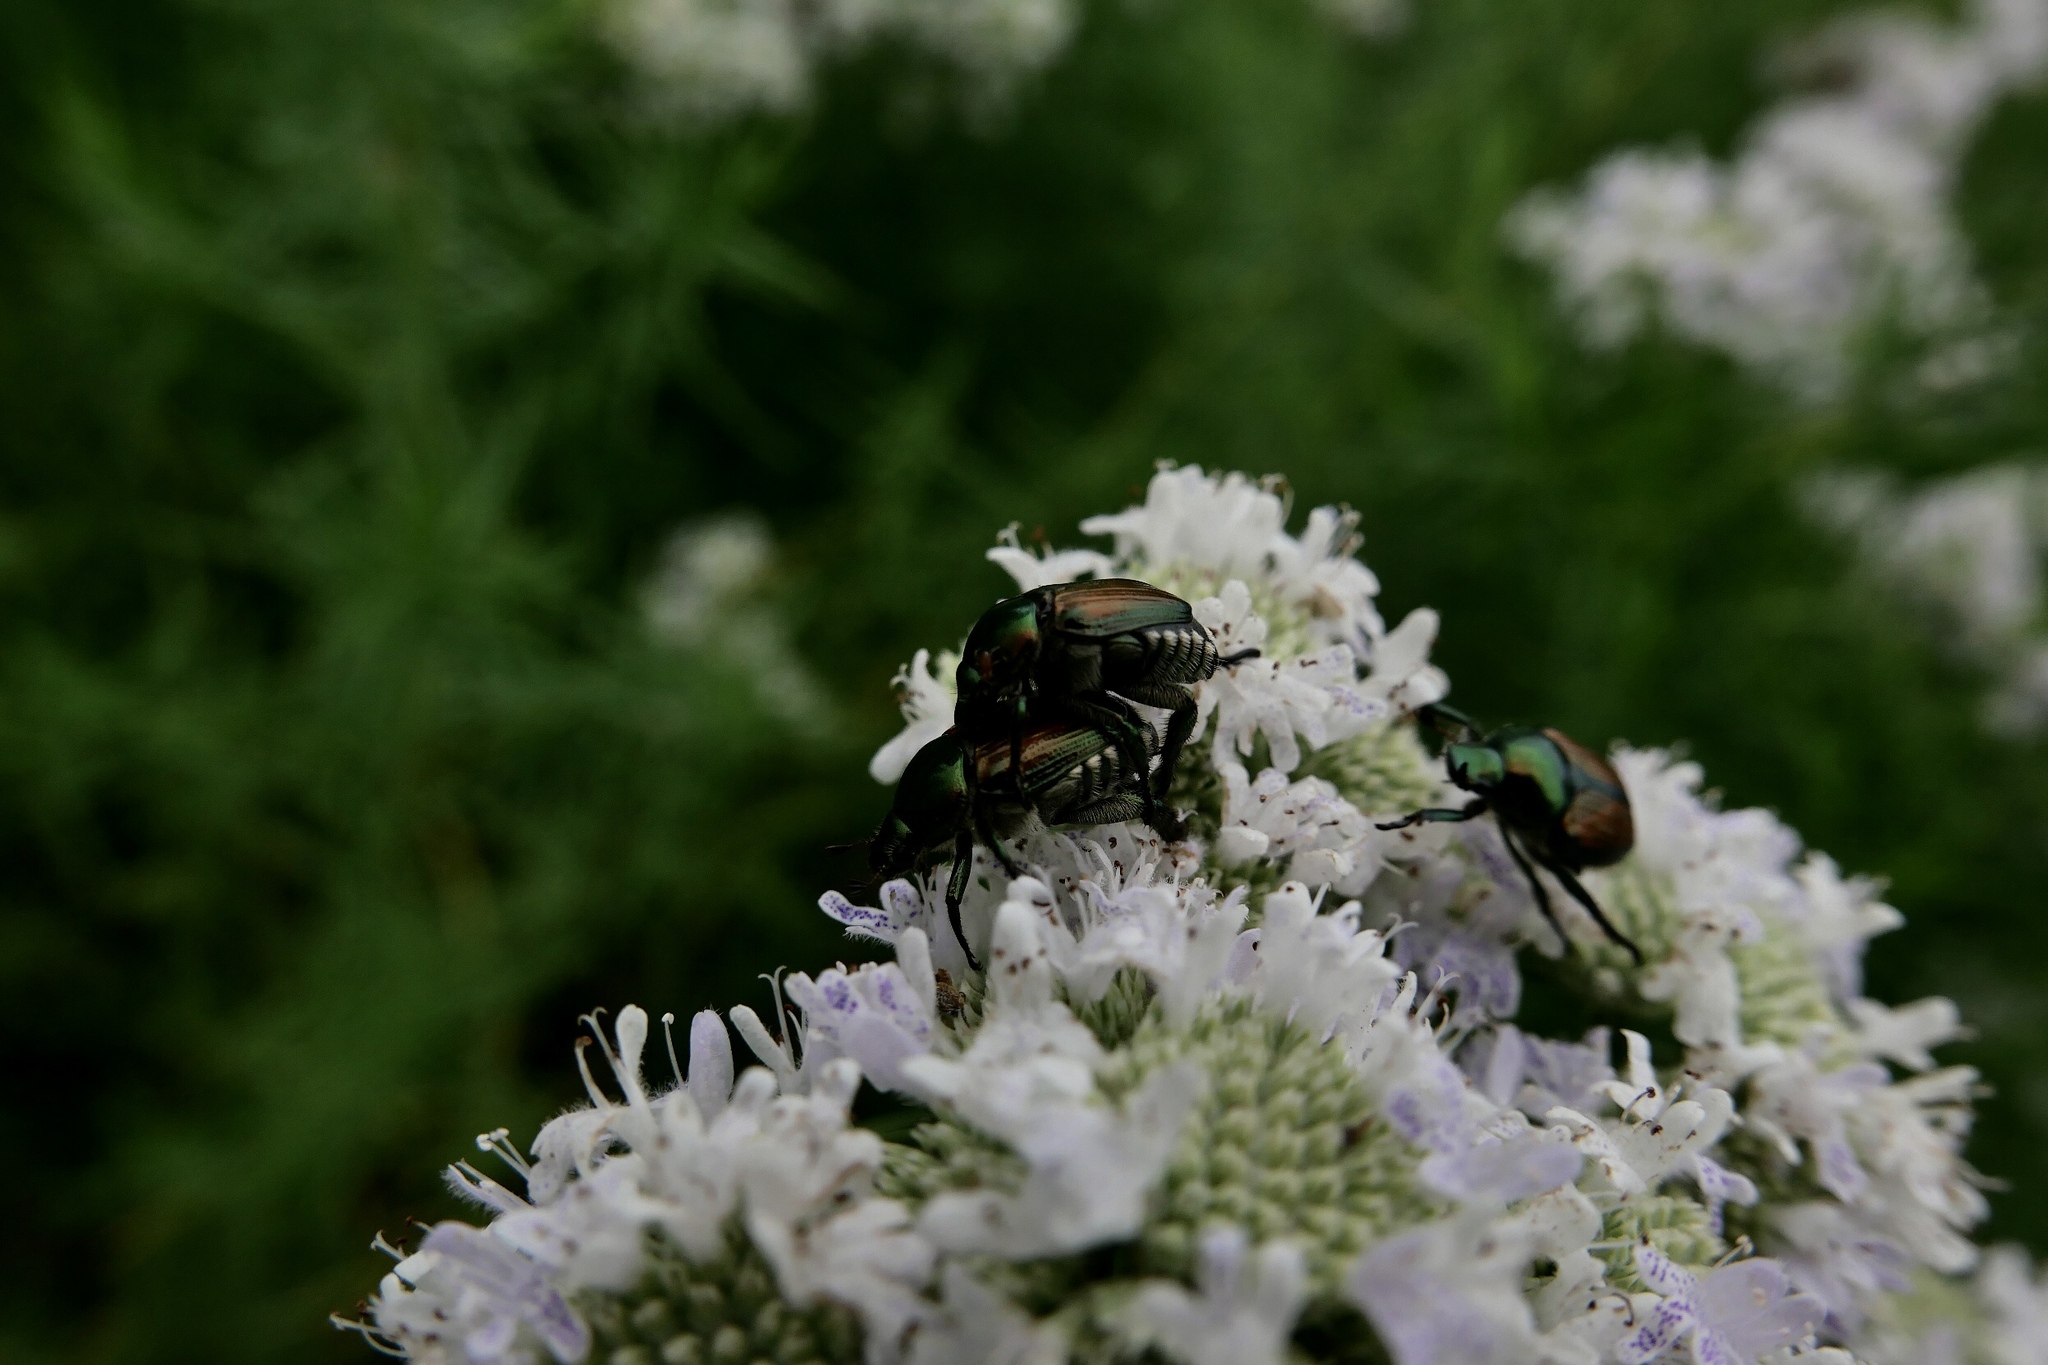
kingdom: Animalia
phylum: Arthropoda
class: Insecta
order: Coleoptera
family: Scarabaeidae
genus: Popillia
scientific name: Popillia japonica
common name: Japanese beetle
